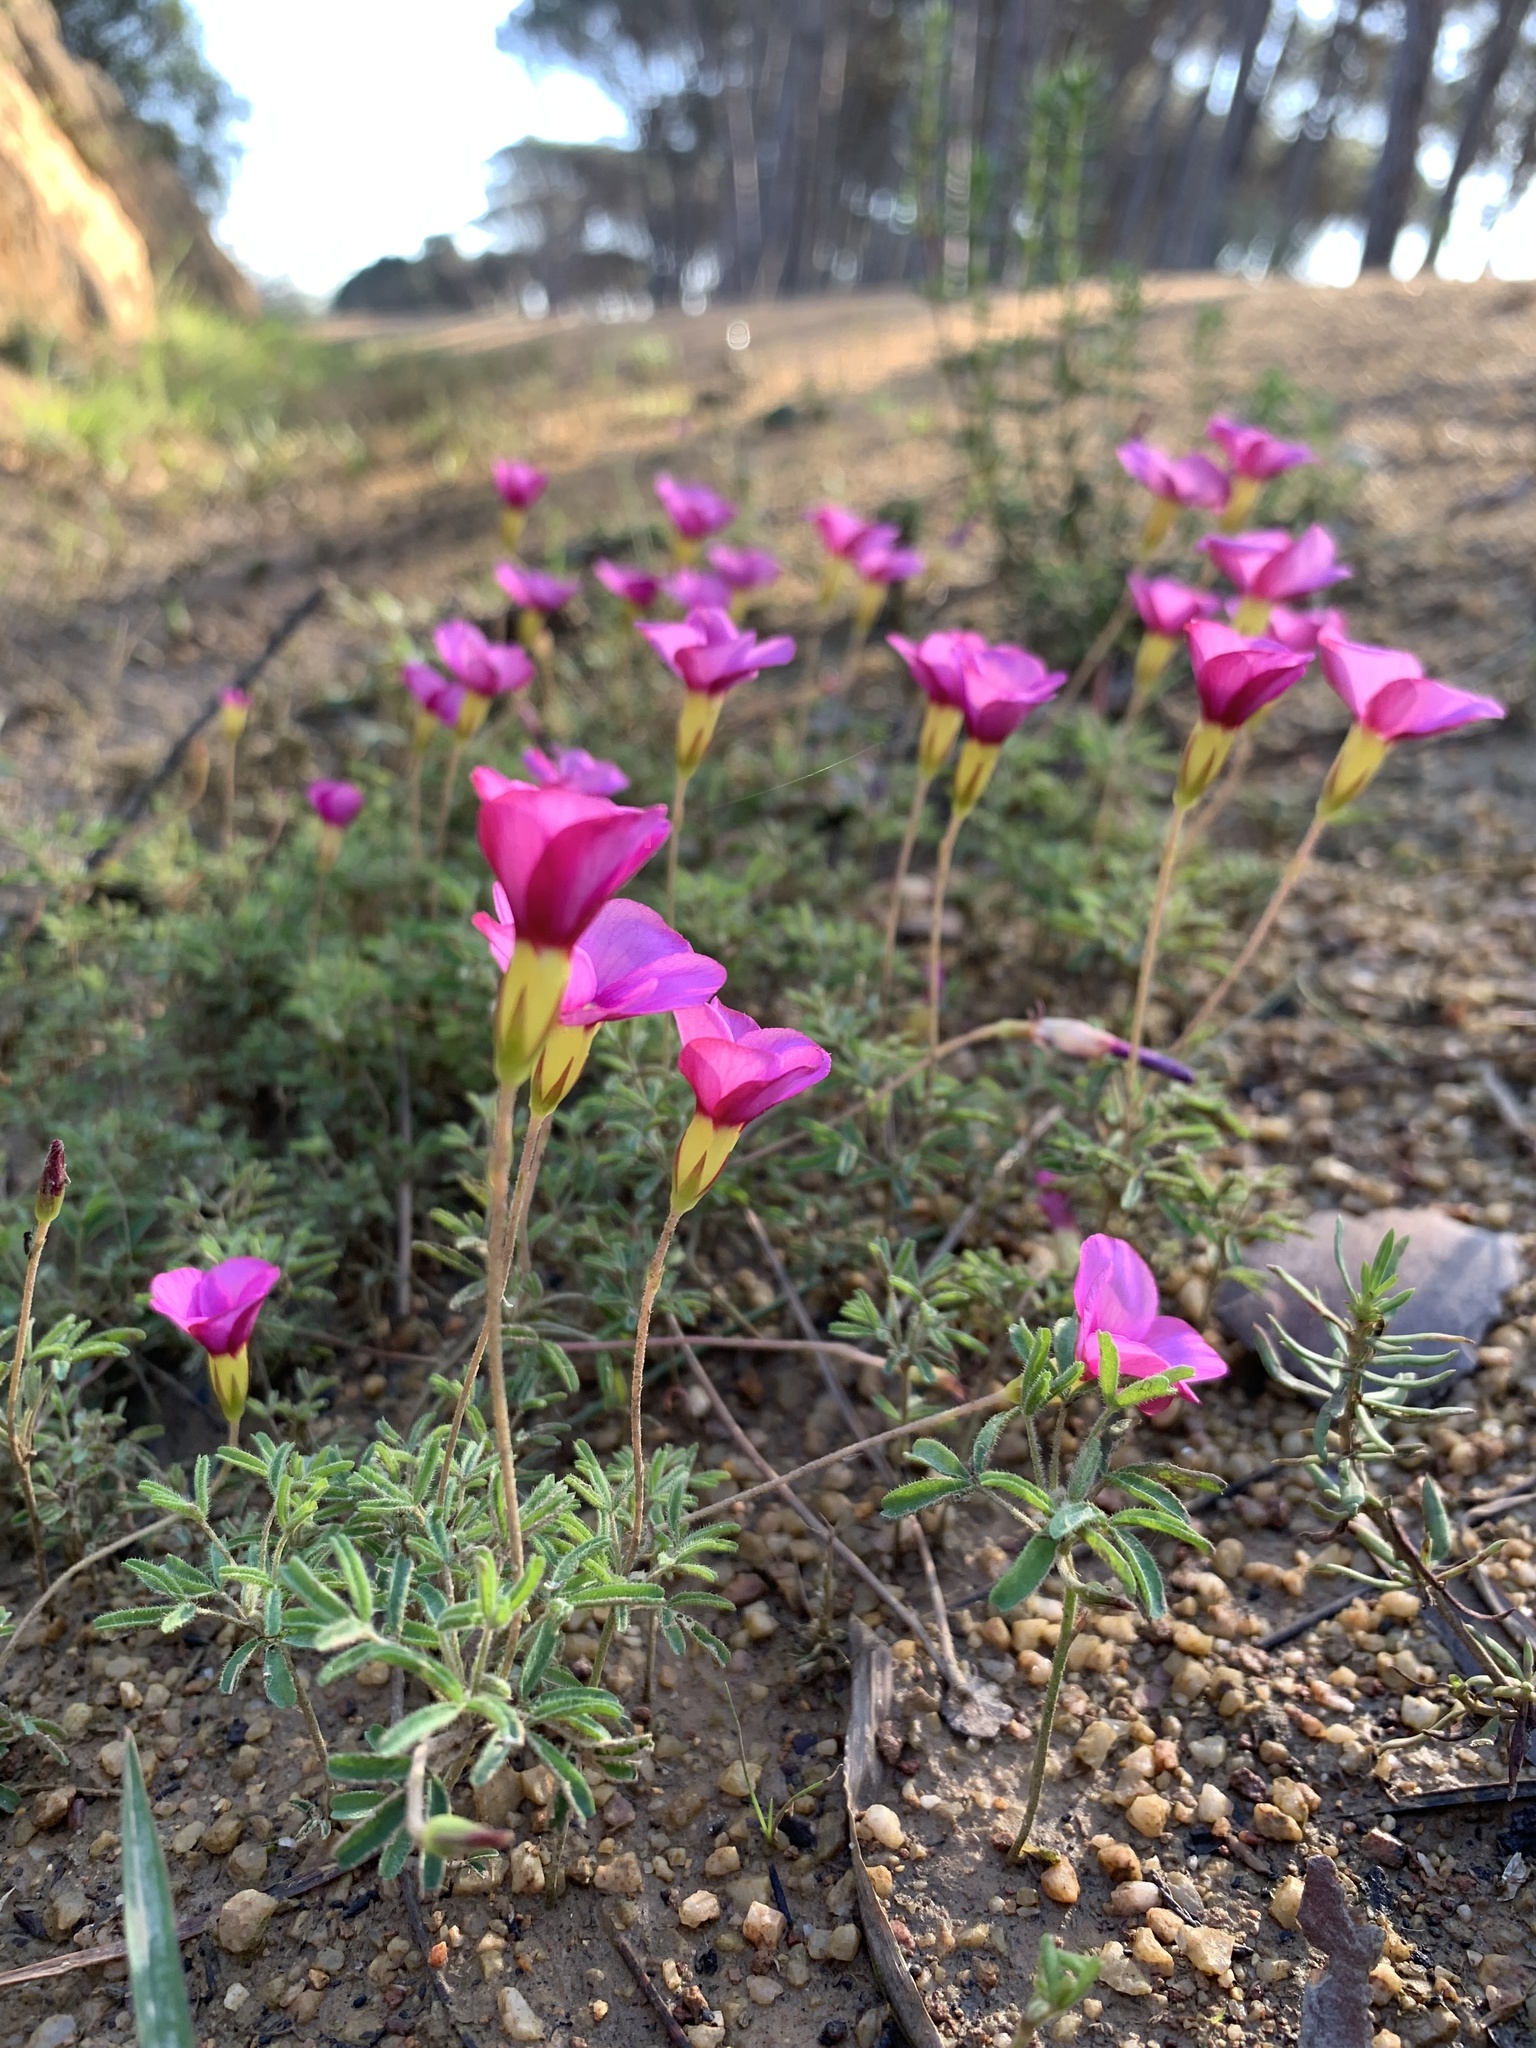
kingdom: Plantae
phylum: Tracheophyta
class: Magnoliopsida
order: Oxalidales
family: Oxalidaceae
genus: Oxalis
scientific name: Oxalis glabra
